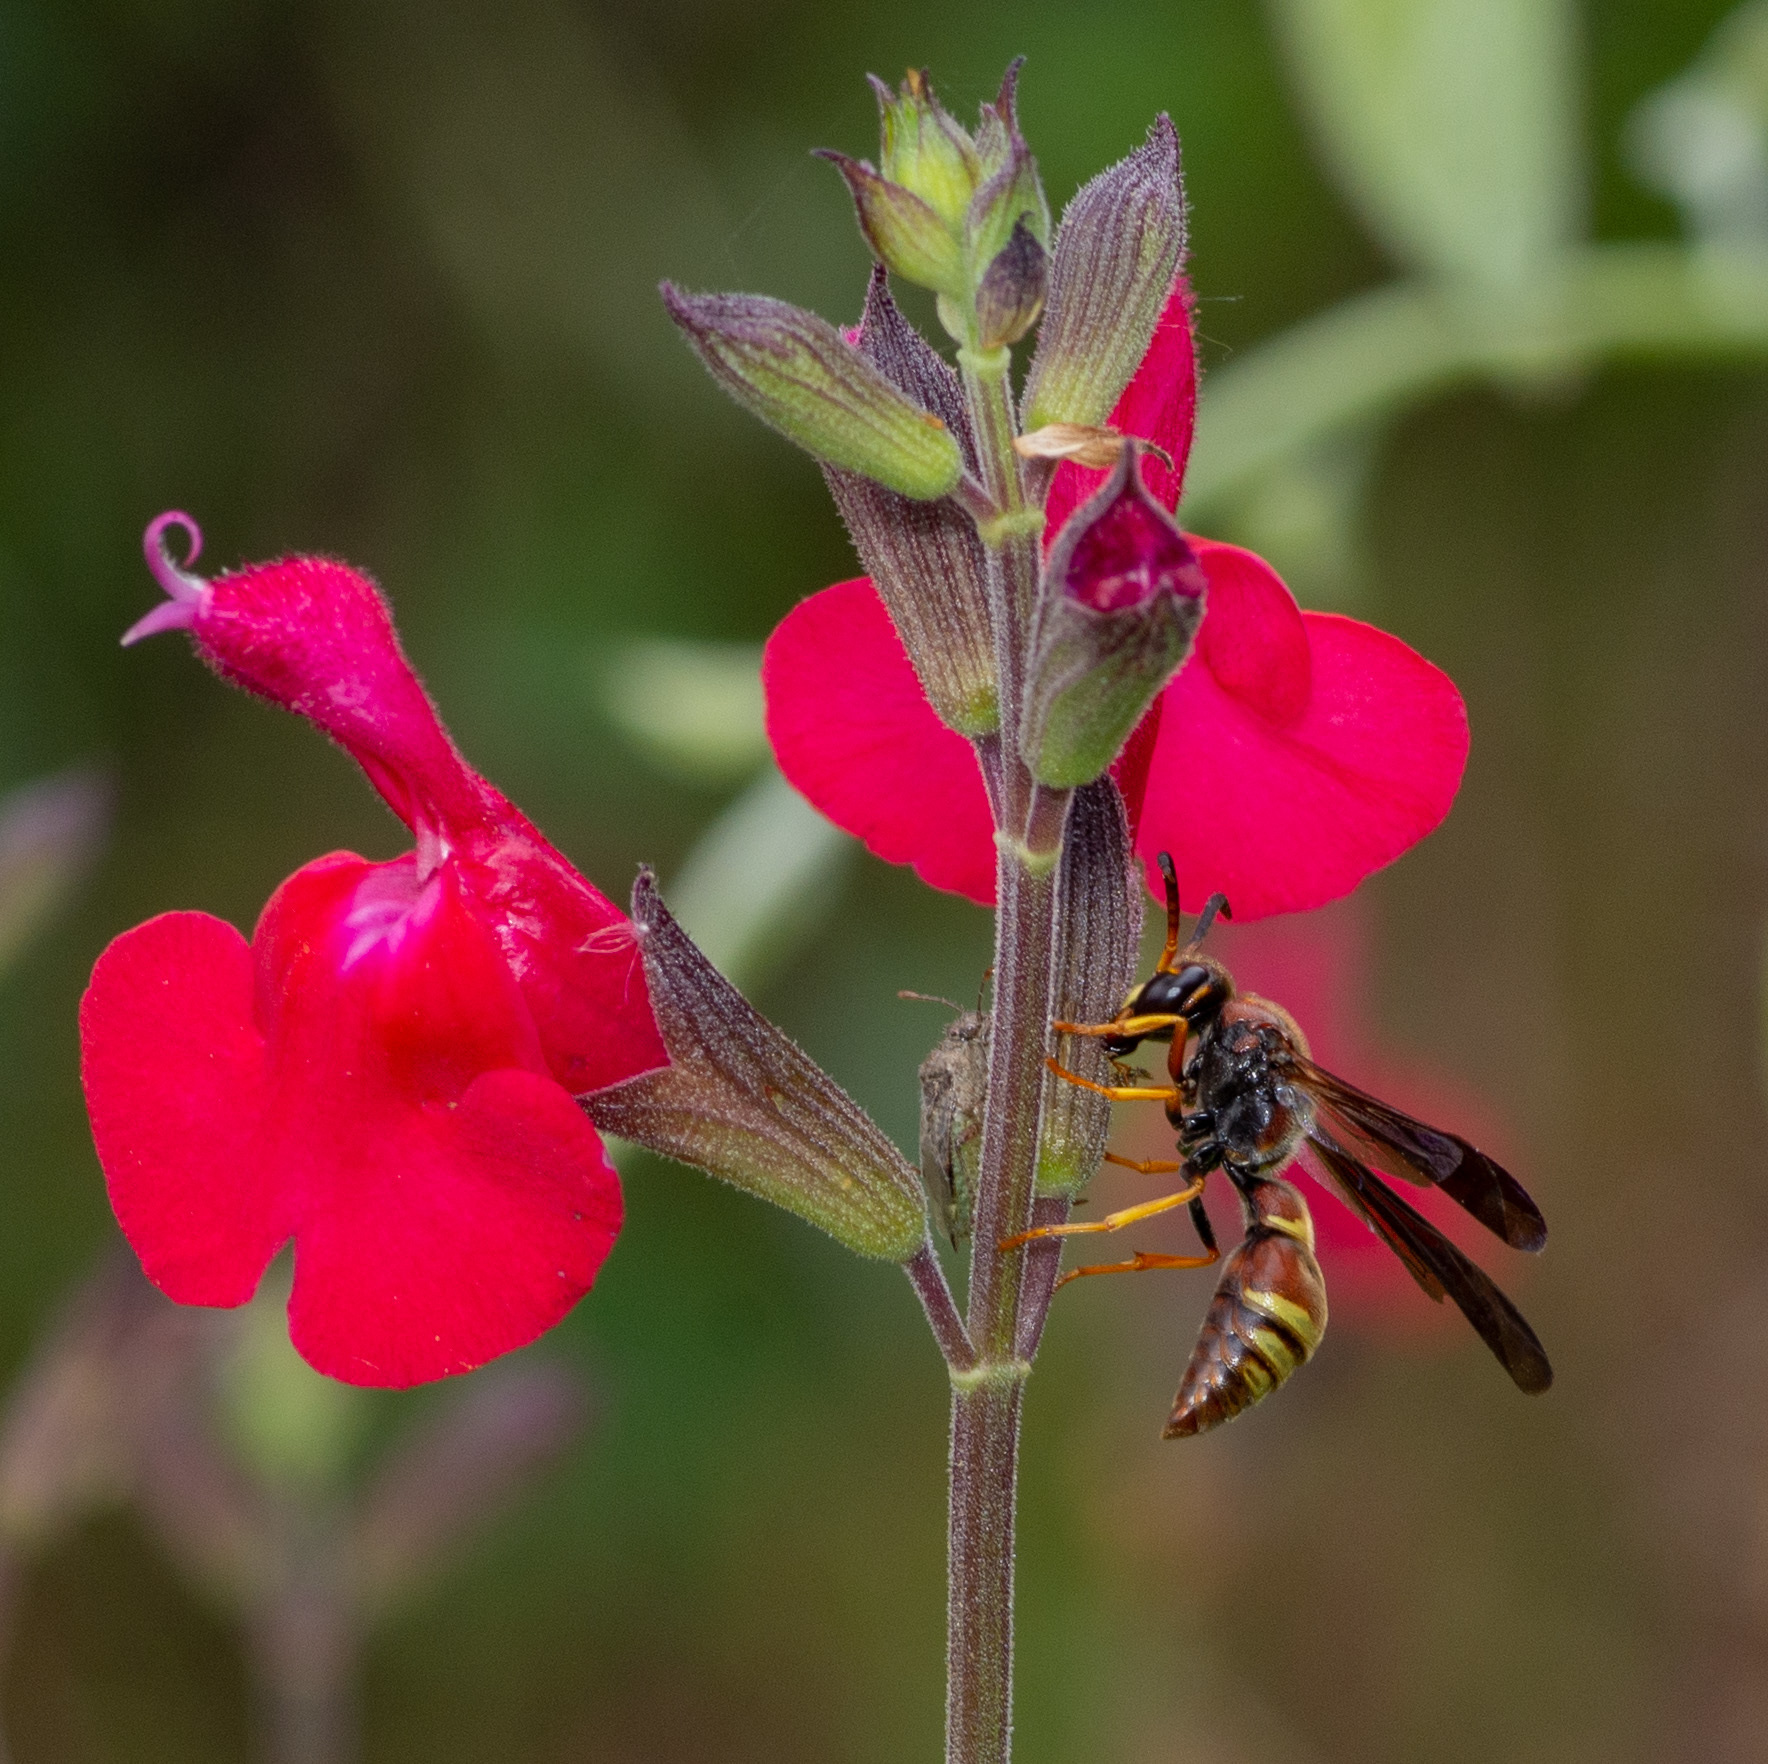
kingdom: Animalia
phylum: Arthropoda
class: Insecta
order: Hymenoptera
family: Eumenidae
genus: Parazumia
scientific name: Parazumia tolteca
